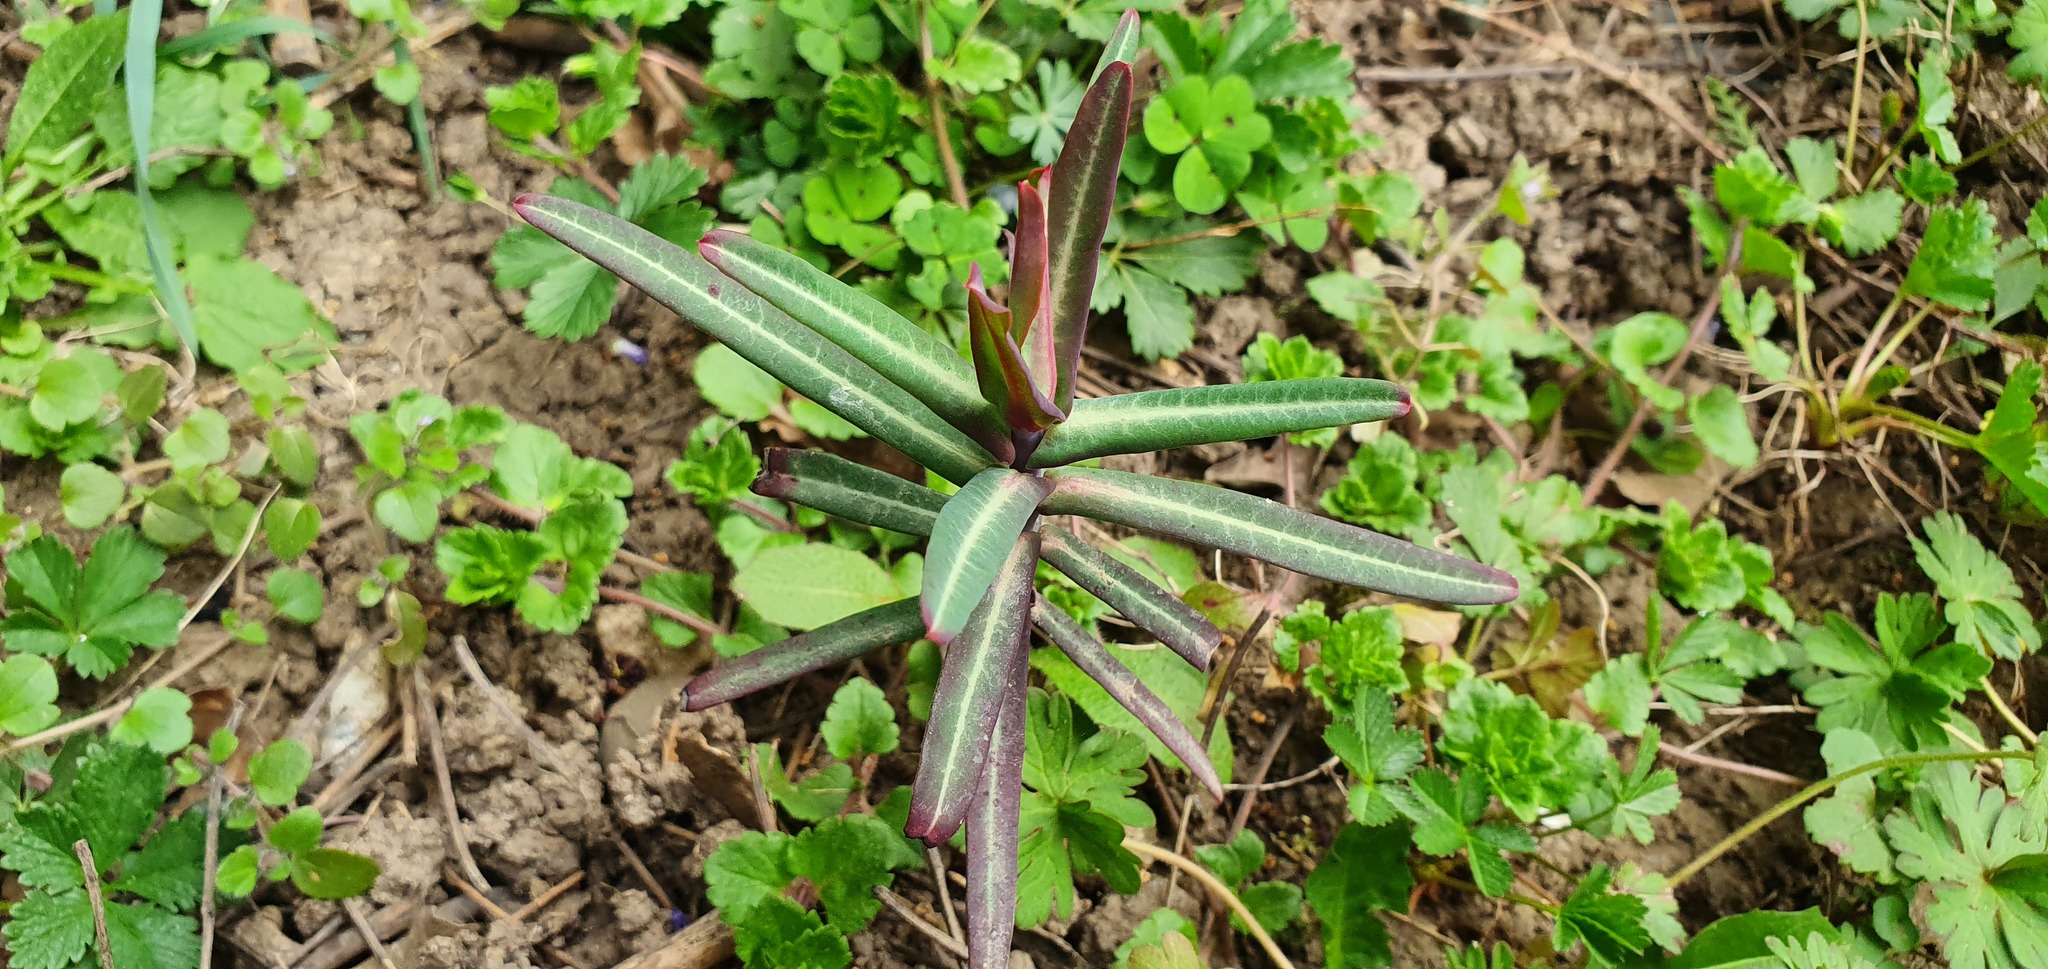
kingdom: Plantae
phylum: Tracheophyta
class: Magnoliopsida
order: Malpighiales
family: Euphorbiaceae
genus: Euphorbia
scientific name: Euphorbia lathyris
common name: Caper spurge
